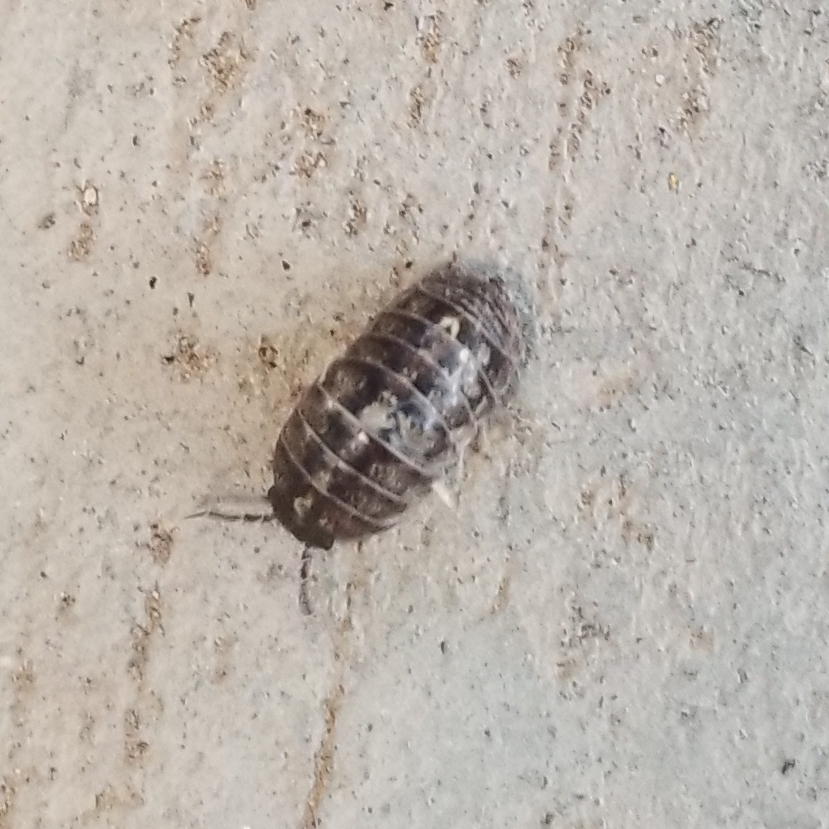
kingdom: Animalia
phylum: Arthropoda
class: Malacostraca
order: Isopoda
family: Armadillidiidae
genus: Armadillidium
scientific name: Armadillidium vulgare
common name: Common pill woodlouse
